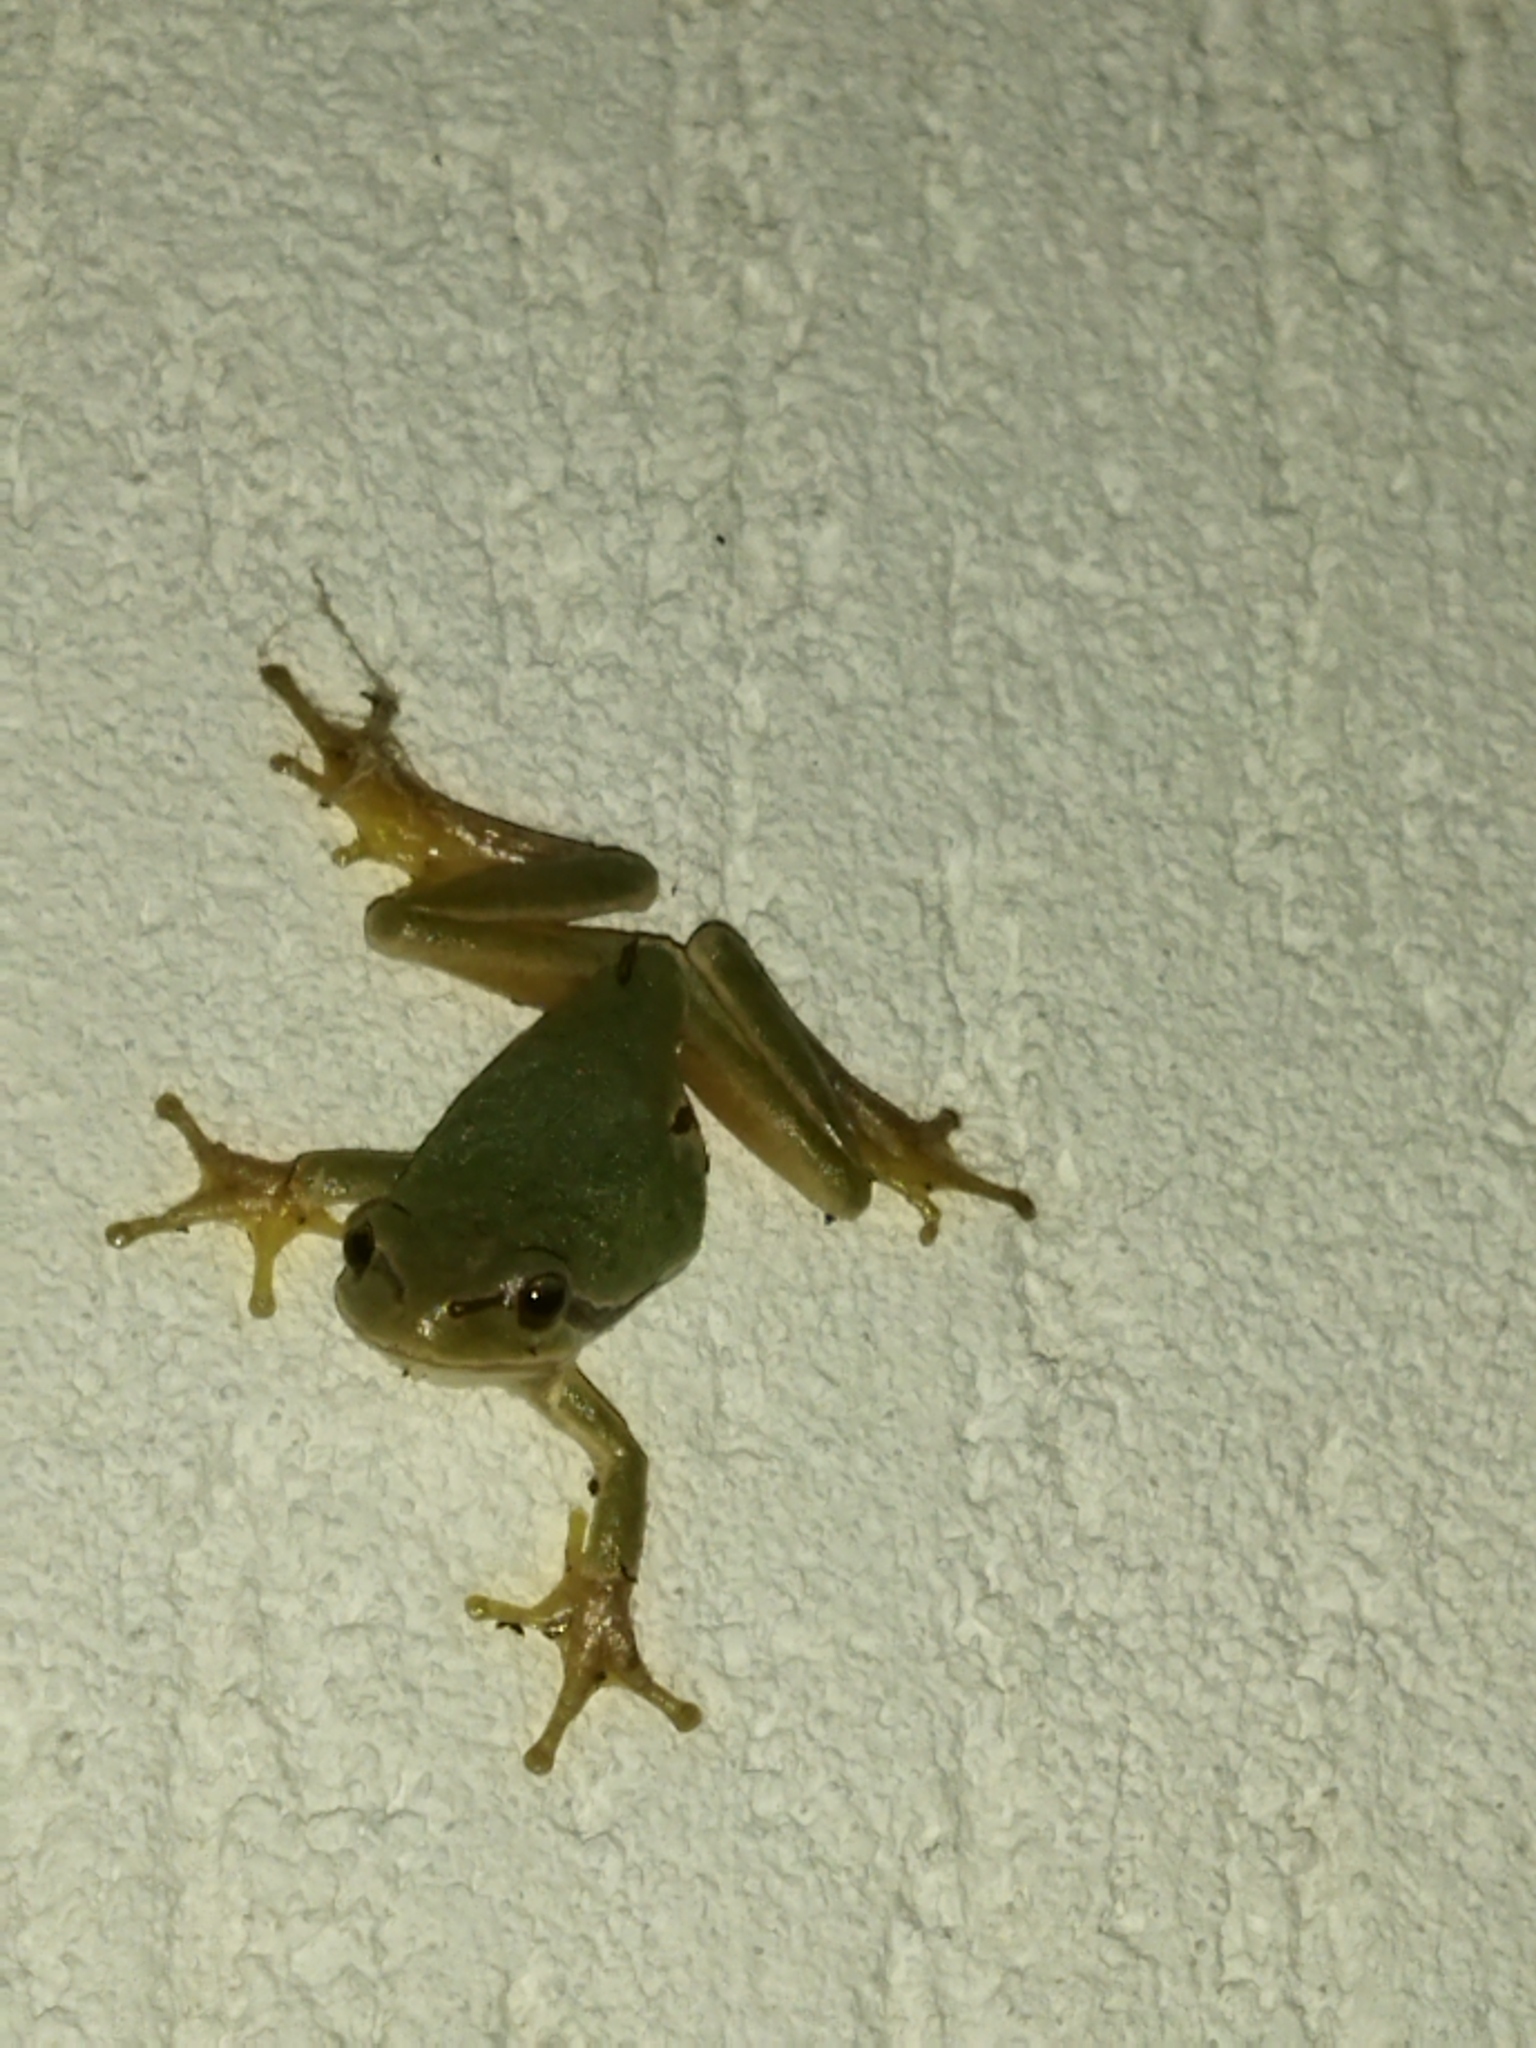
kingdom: Animalia
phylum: Chordata
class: Amphibia
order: Anura
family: Hylidae
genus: Hyla
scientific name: Hyla orientalis
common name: Caucasian treefrog
